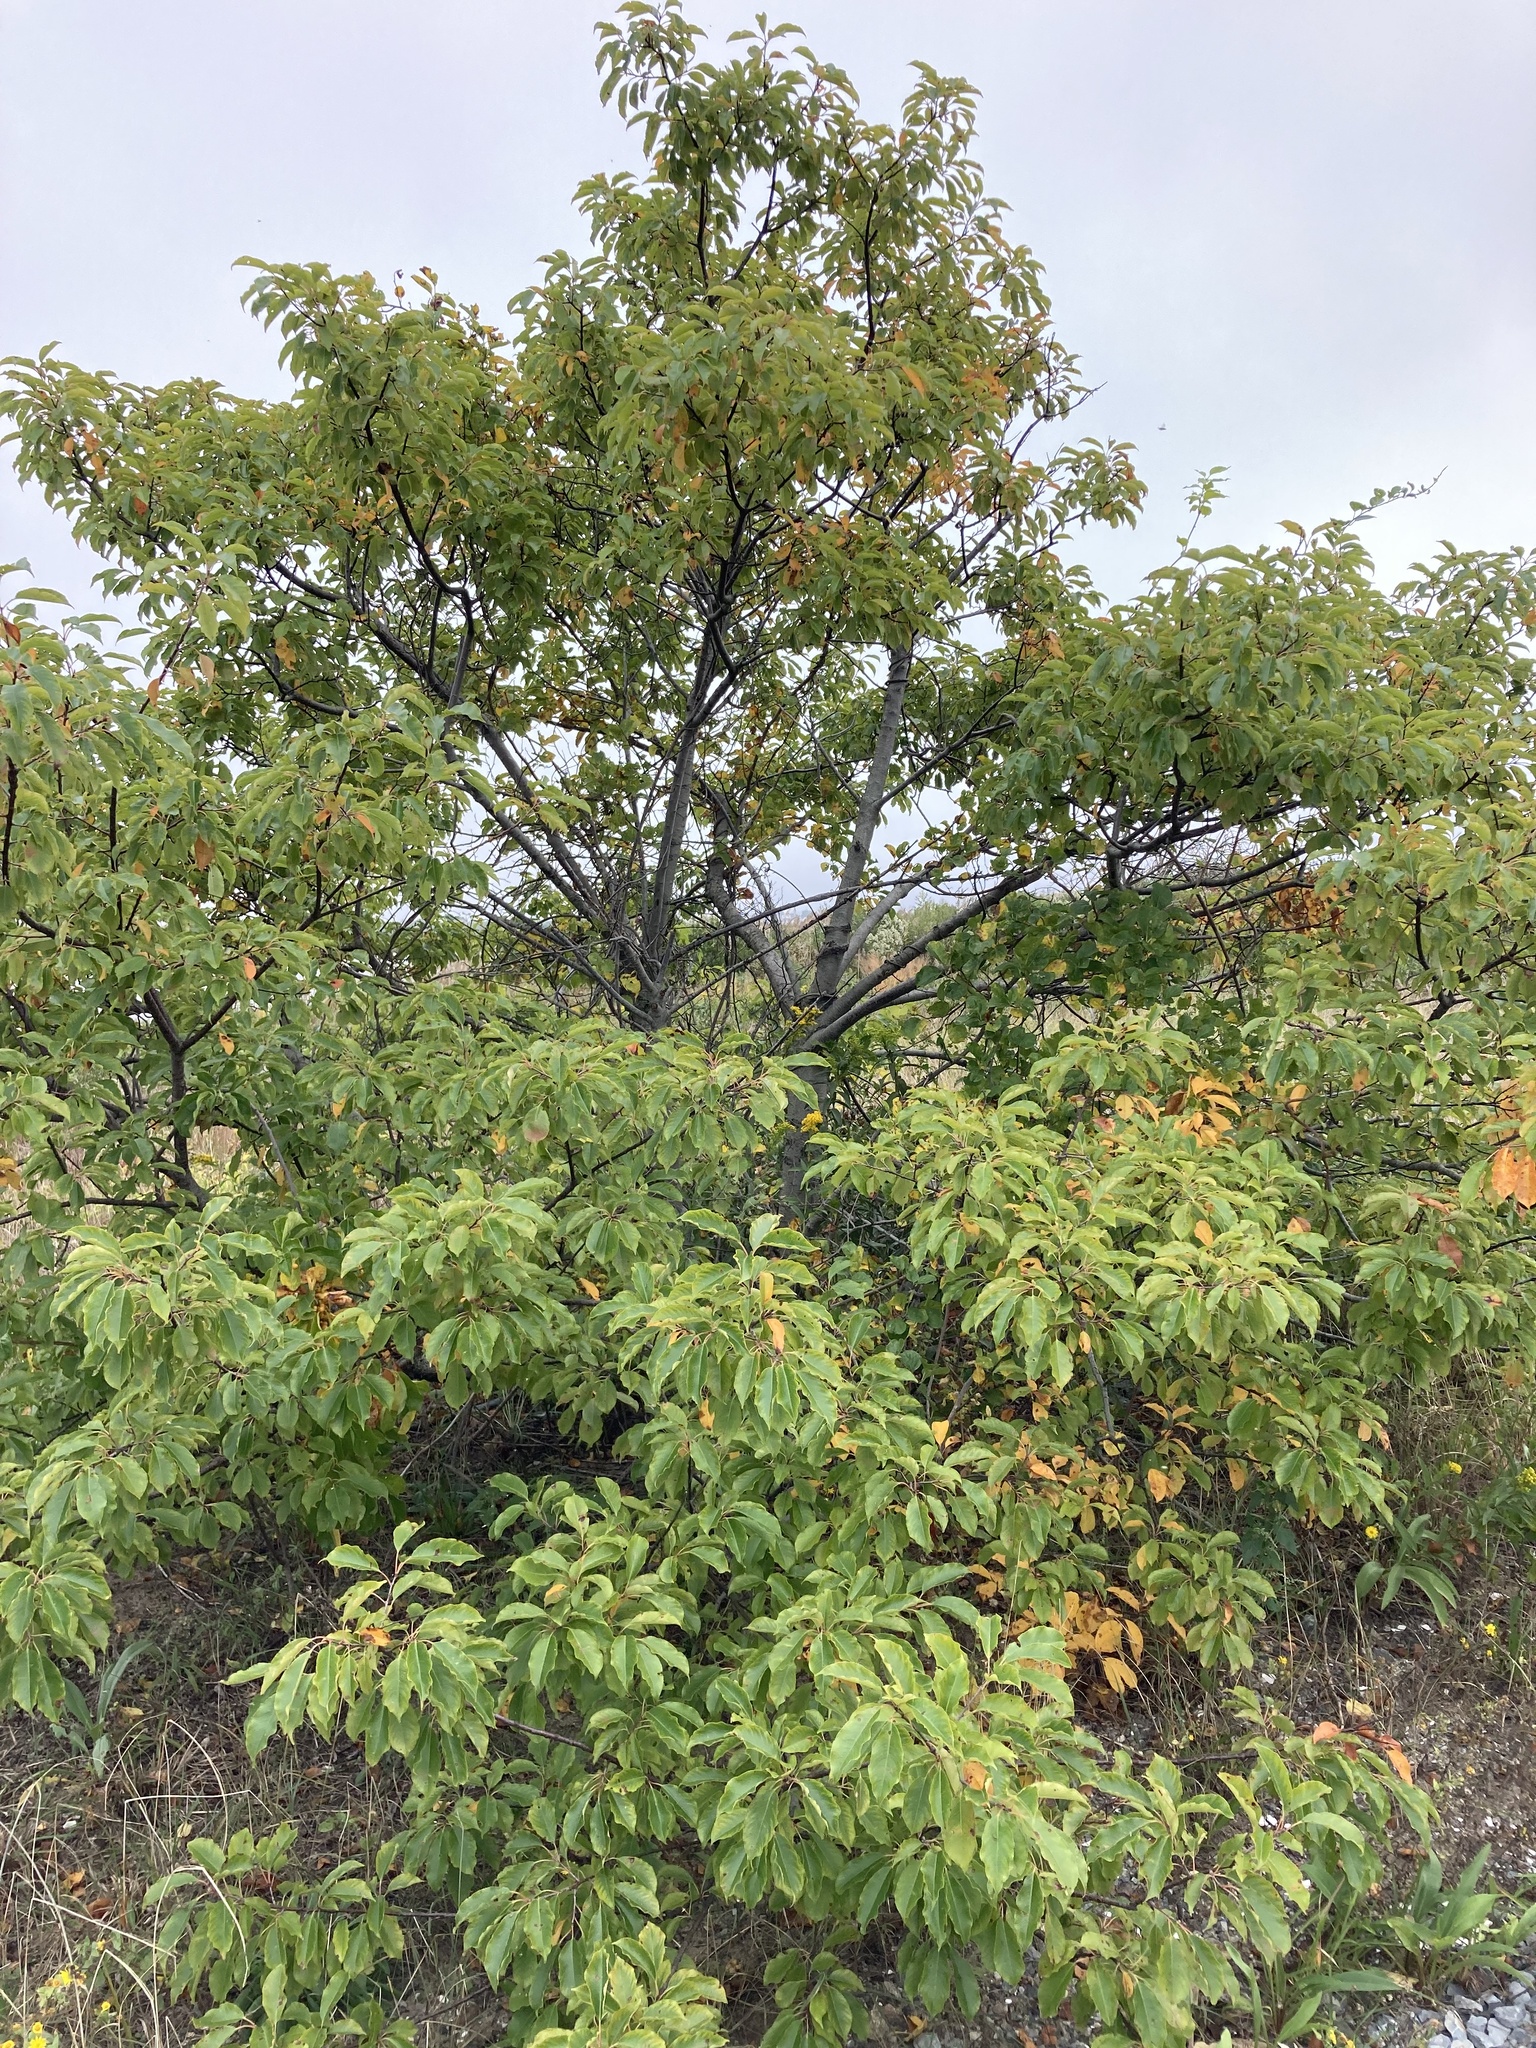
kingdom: Plantae
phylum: Tracheophyta
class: Magnoliopsida
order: Rosales
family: Rosaceae
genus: Prunus
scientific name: Prunus serotina
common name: Black cherry
